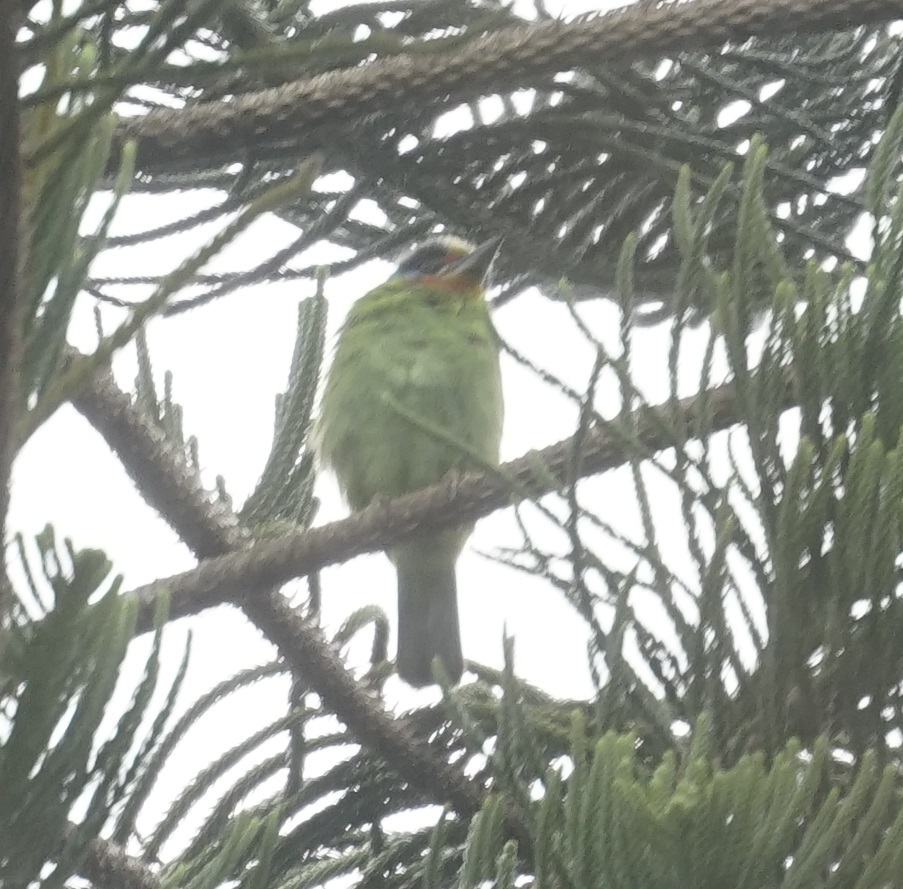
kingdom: Animalia
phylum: Chordata
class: Aves
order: Piciformes
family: Megalaimidae
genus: Psilopogon
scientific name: Psilopogon nuchalis
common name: Taiwan barbet
